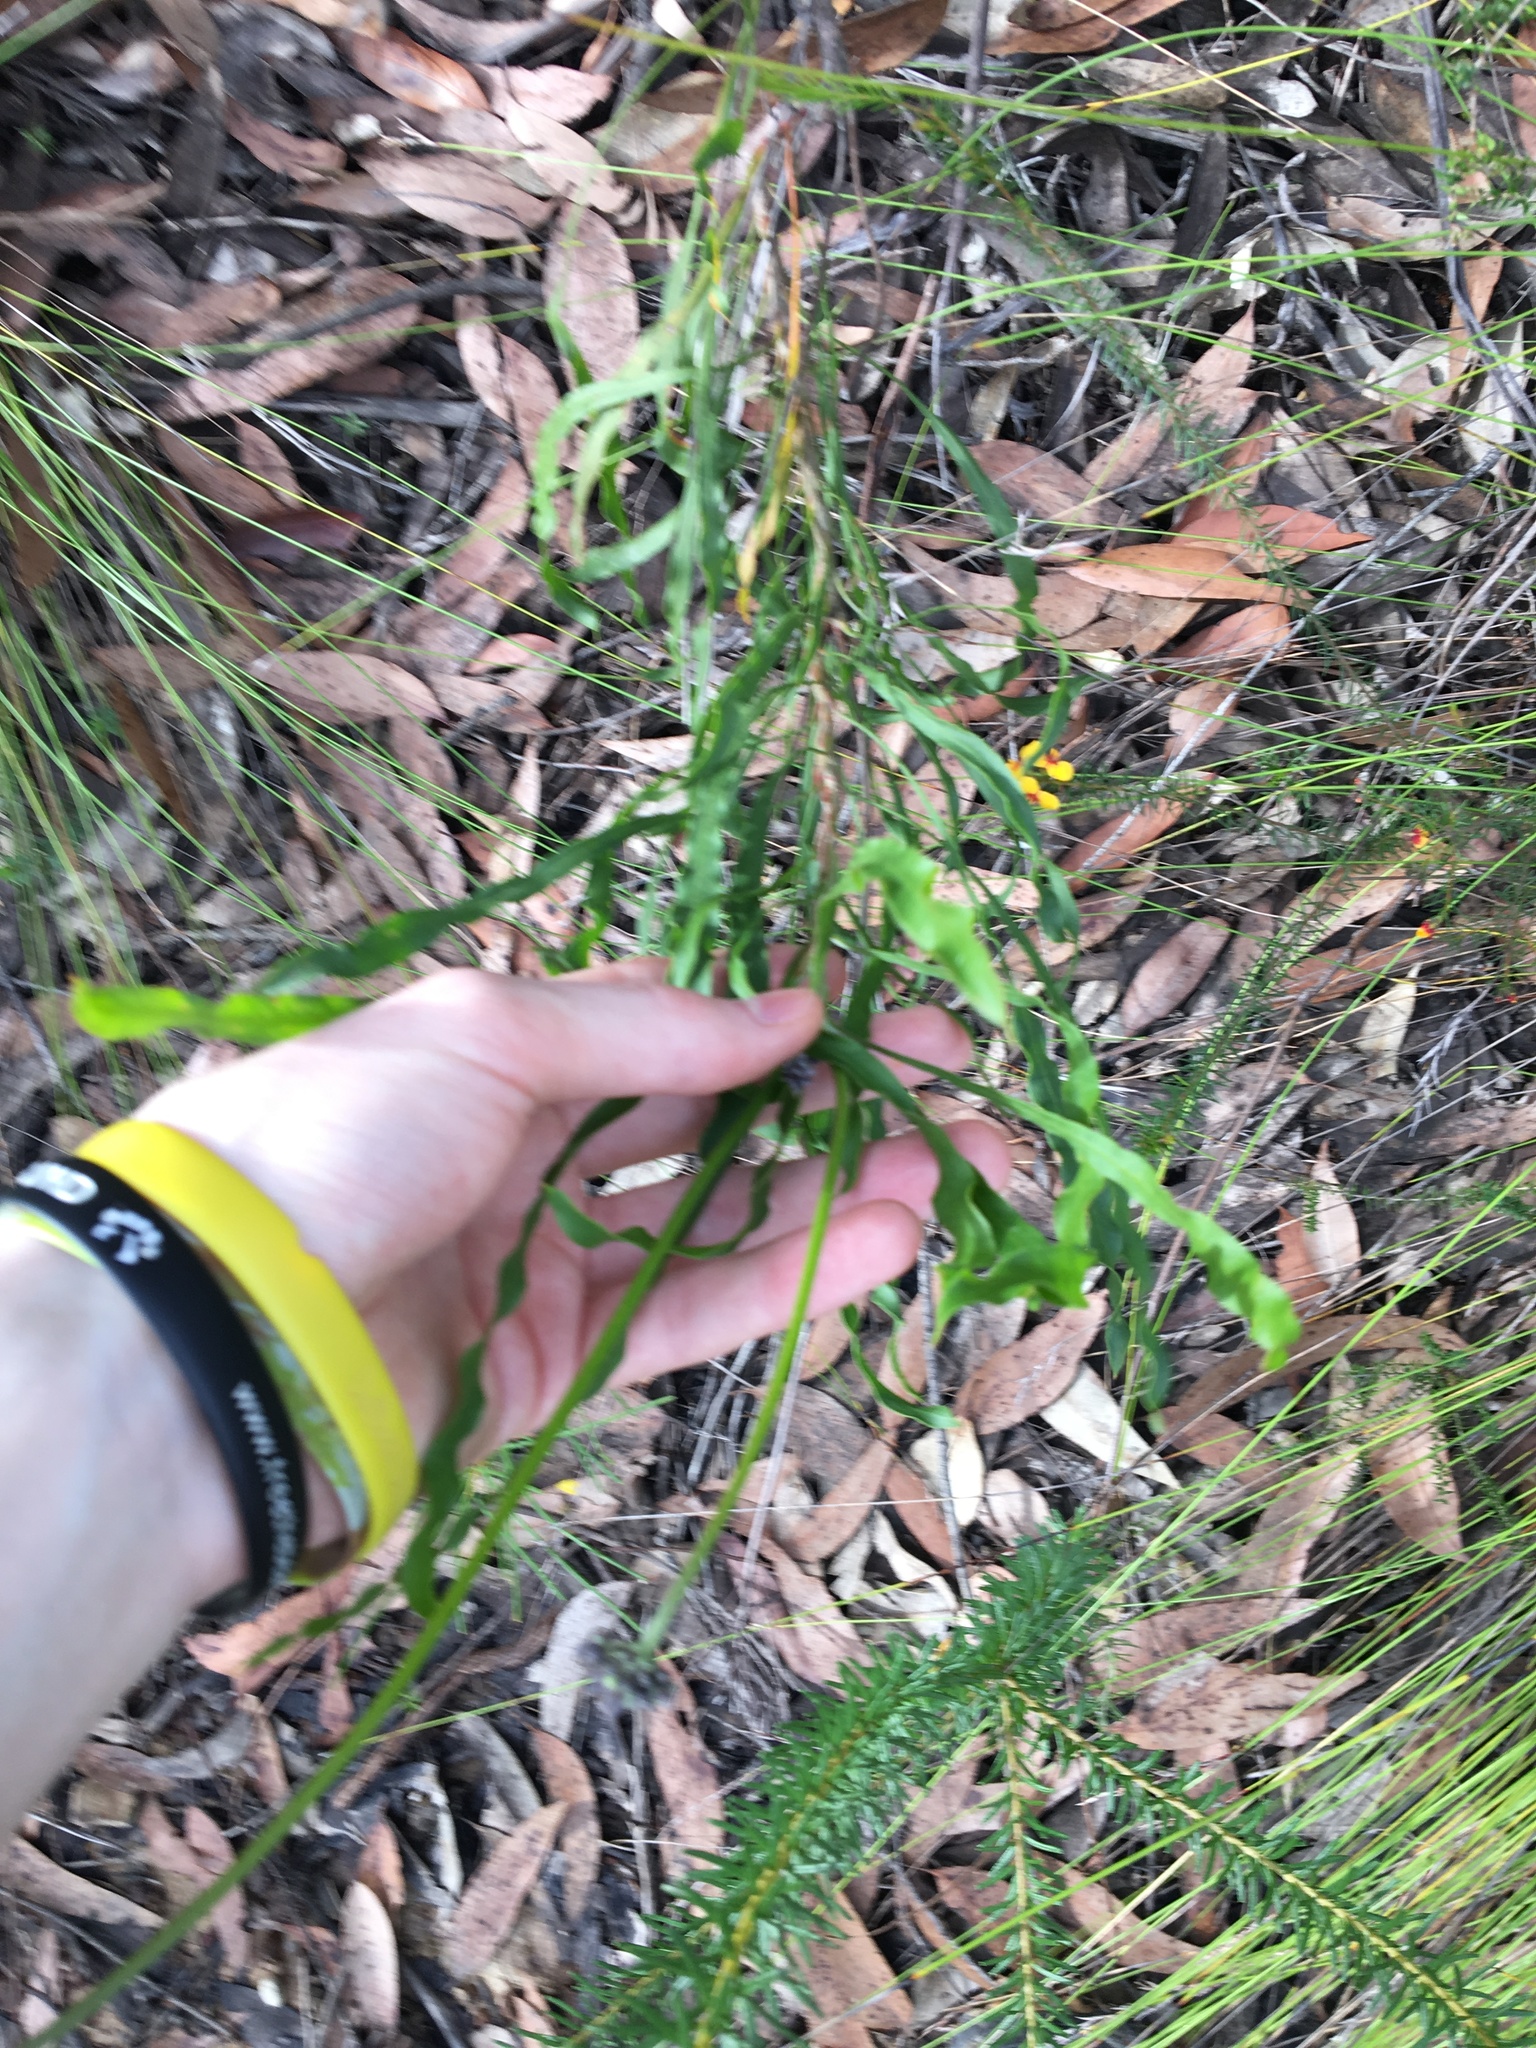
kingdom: Plantae
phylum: Tracheophyta
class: Magnoliopsida
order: Proteales
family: Proteaceae
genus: Conospermum
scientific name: Conospermum longifolium
